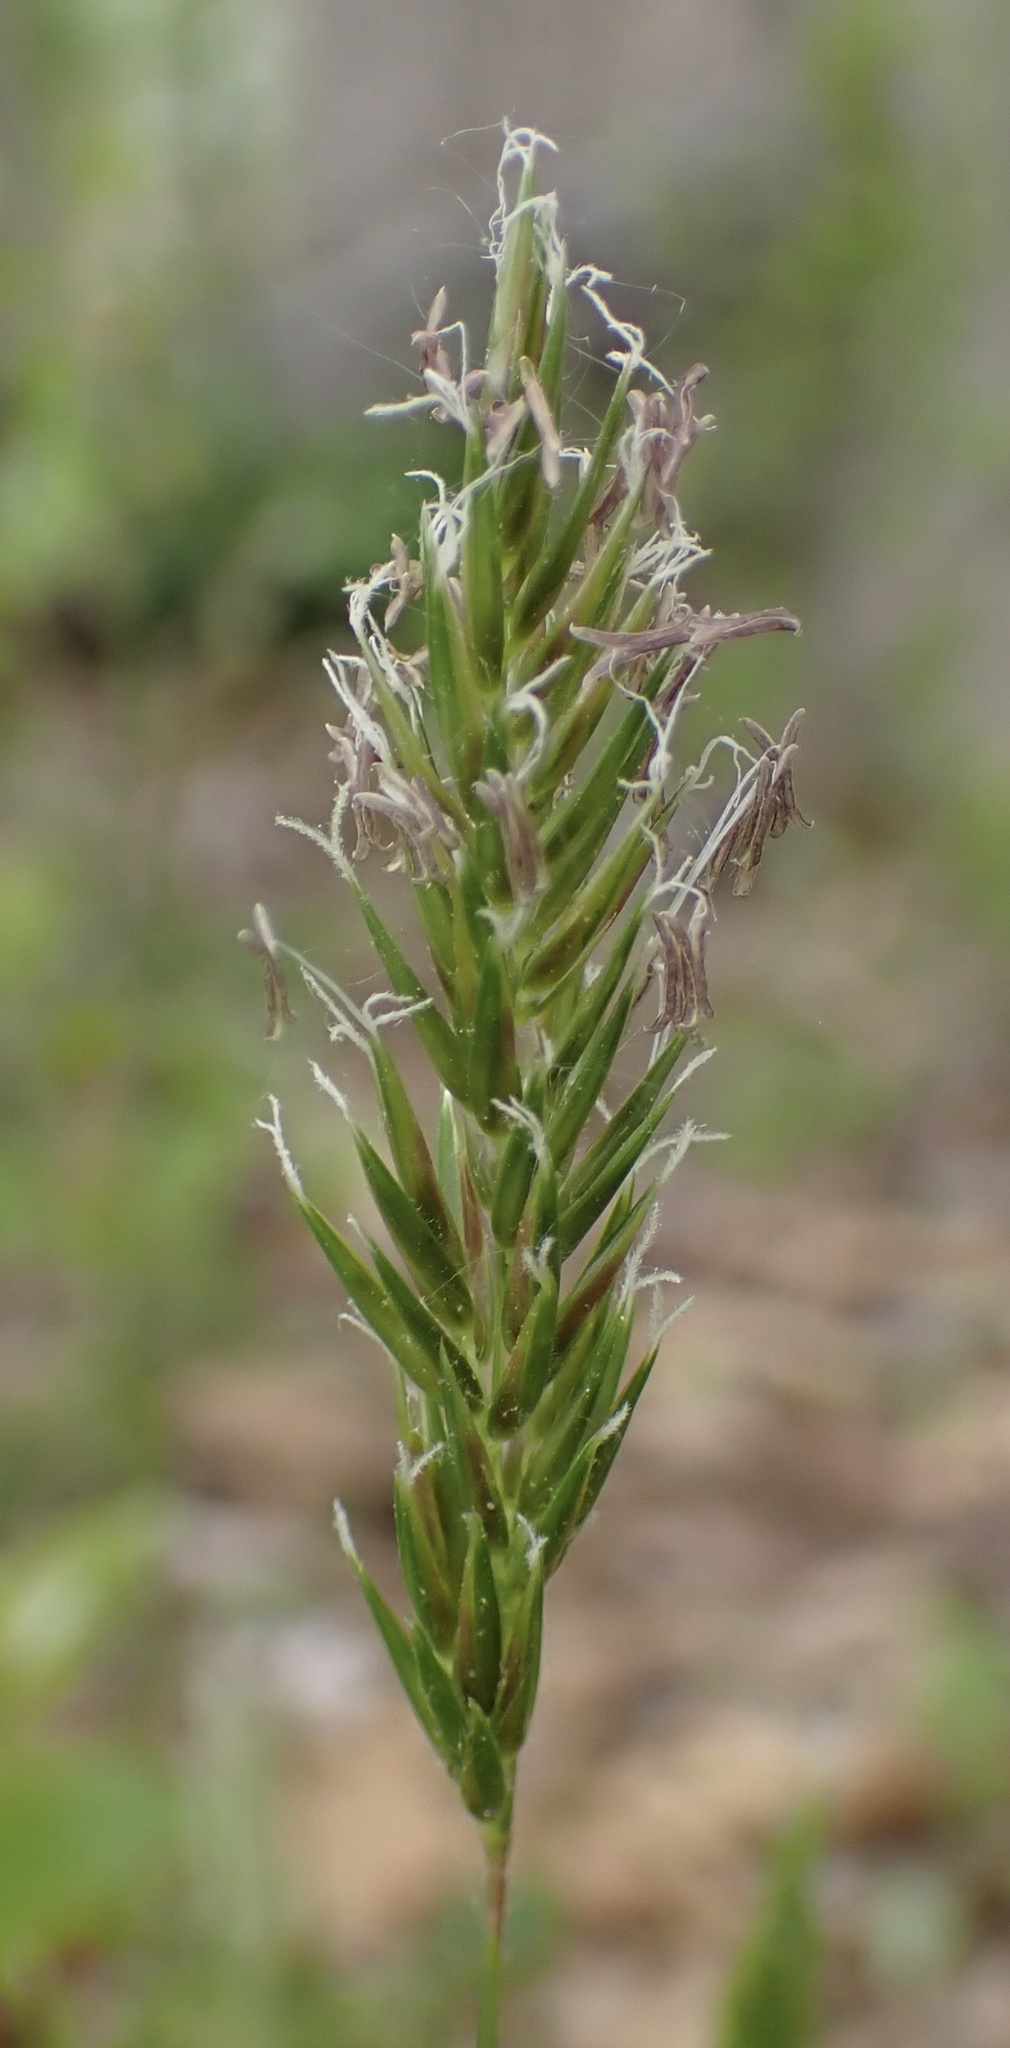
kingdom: Plantae
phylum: Tracheophyta
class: Liliopsida
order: Poales
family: Poaceae
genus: Anthoxanthum
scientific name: Anthoxanthum odoratum
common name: Sweet vernalgrass
